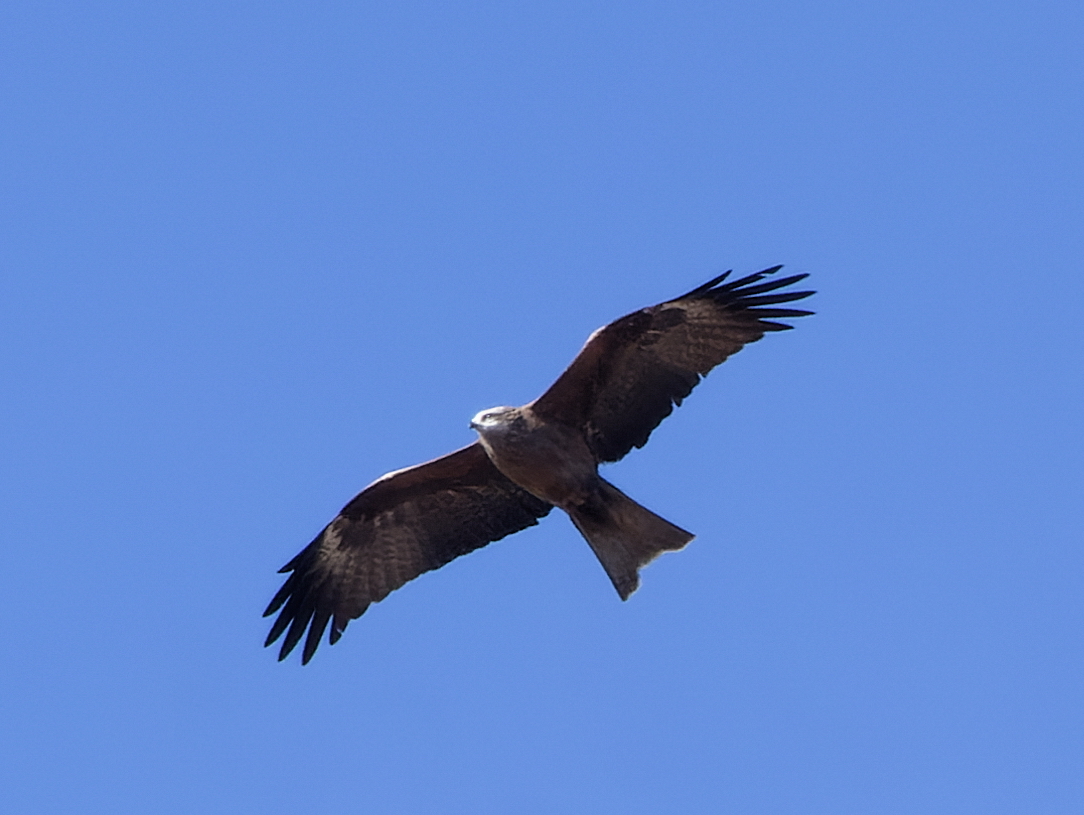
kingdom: Animalia
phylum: Chordata
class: Aves
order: Accipitriformes
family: Accipitridae
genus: Milvus
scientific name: Milvus migrans
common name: Black kite
